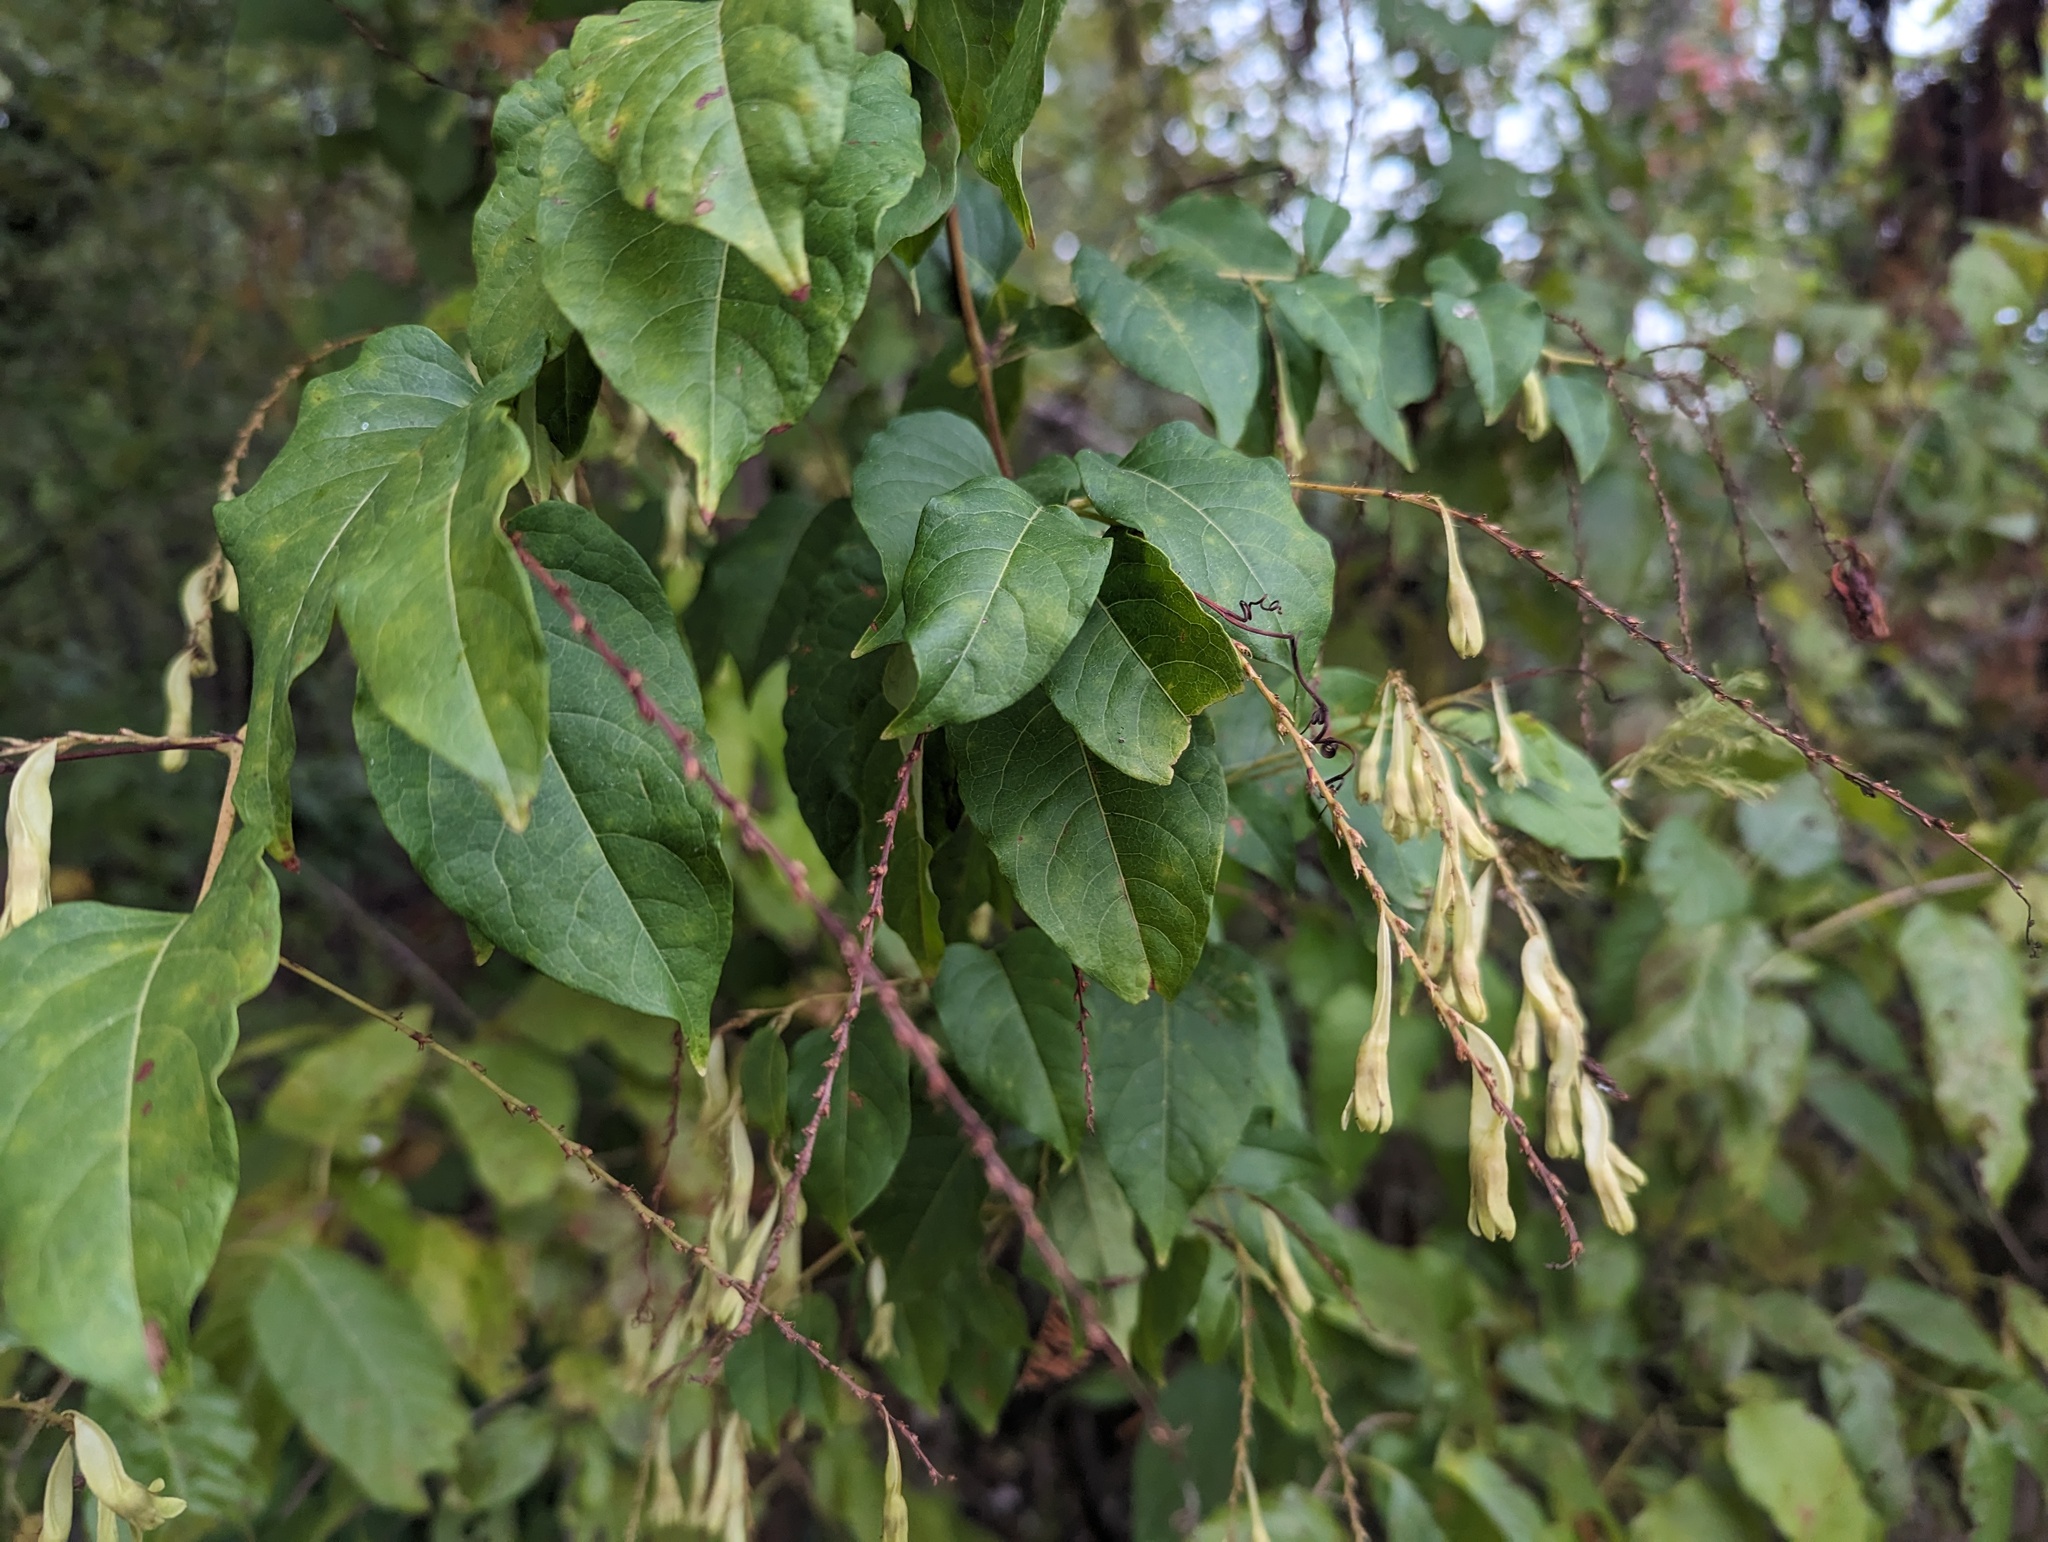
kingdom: Plantae
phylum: Tracheophyta
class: Magnoliopsida
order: Caryophyllales
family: Polygonaceae
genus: Brunnichia
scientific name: Brunnichia ovata
